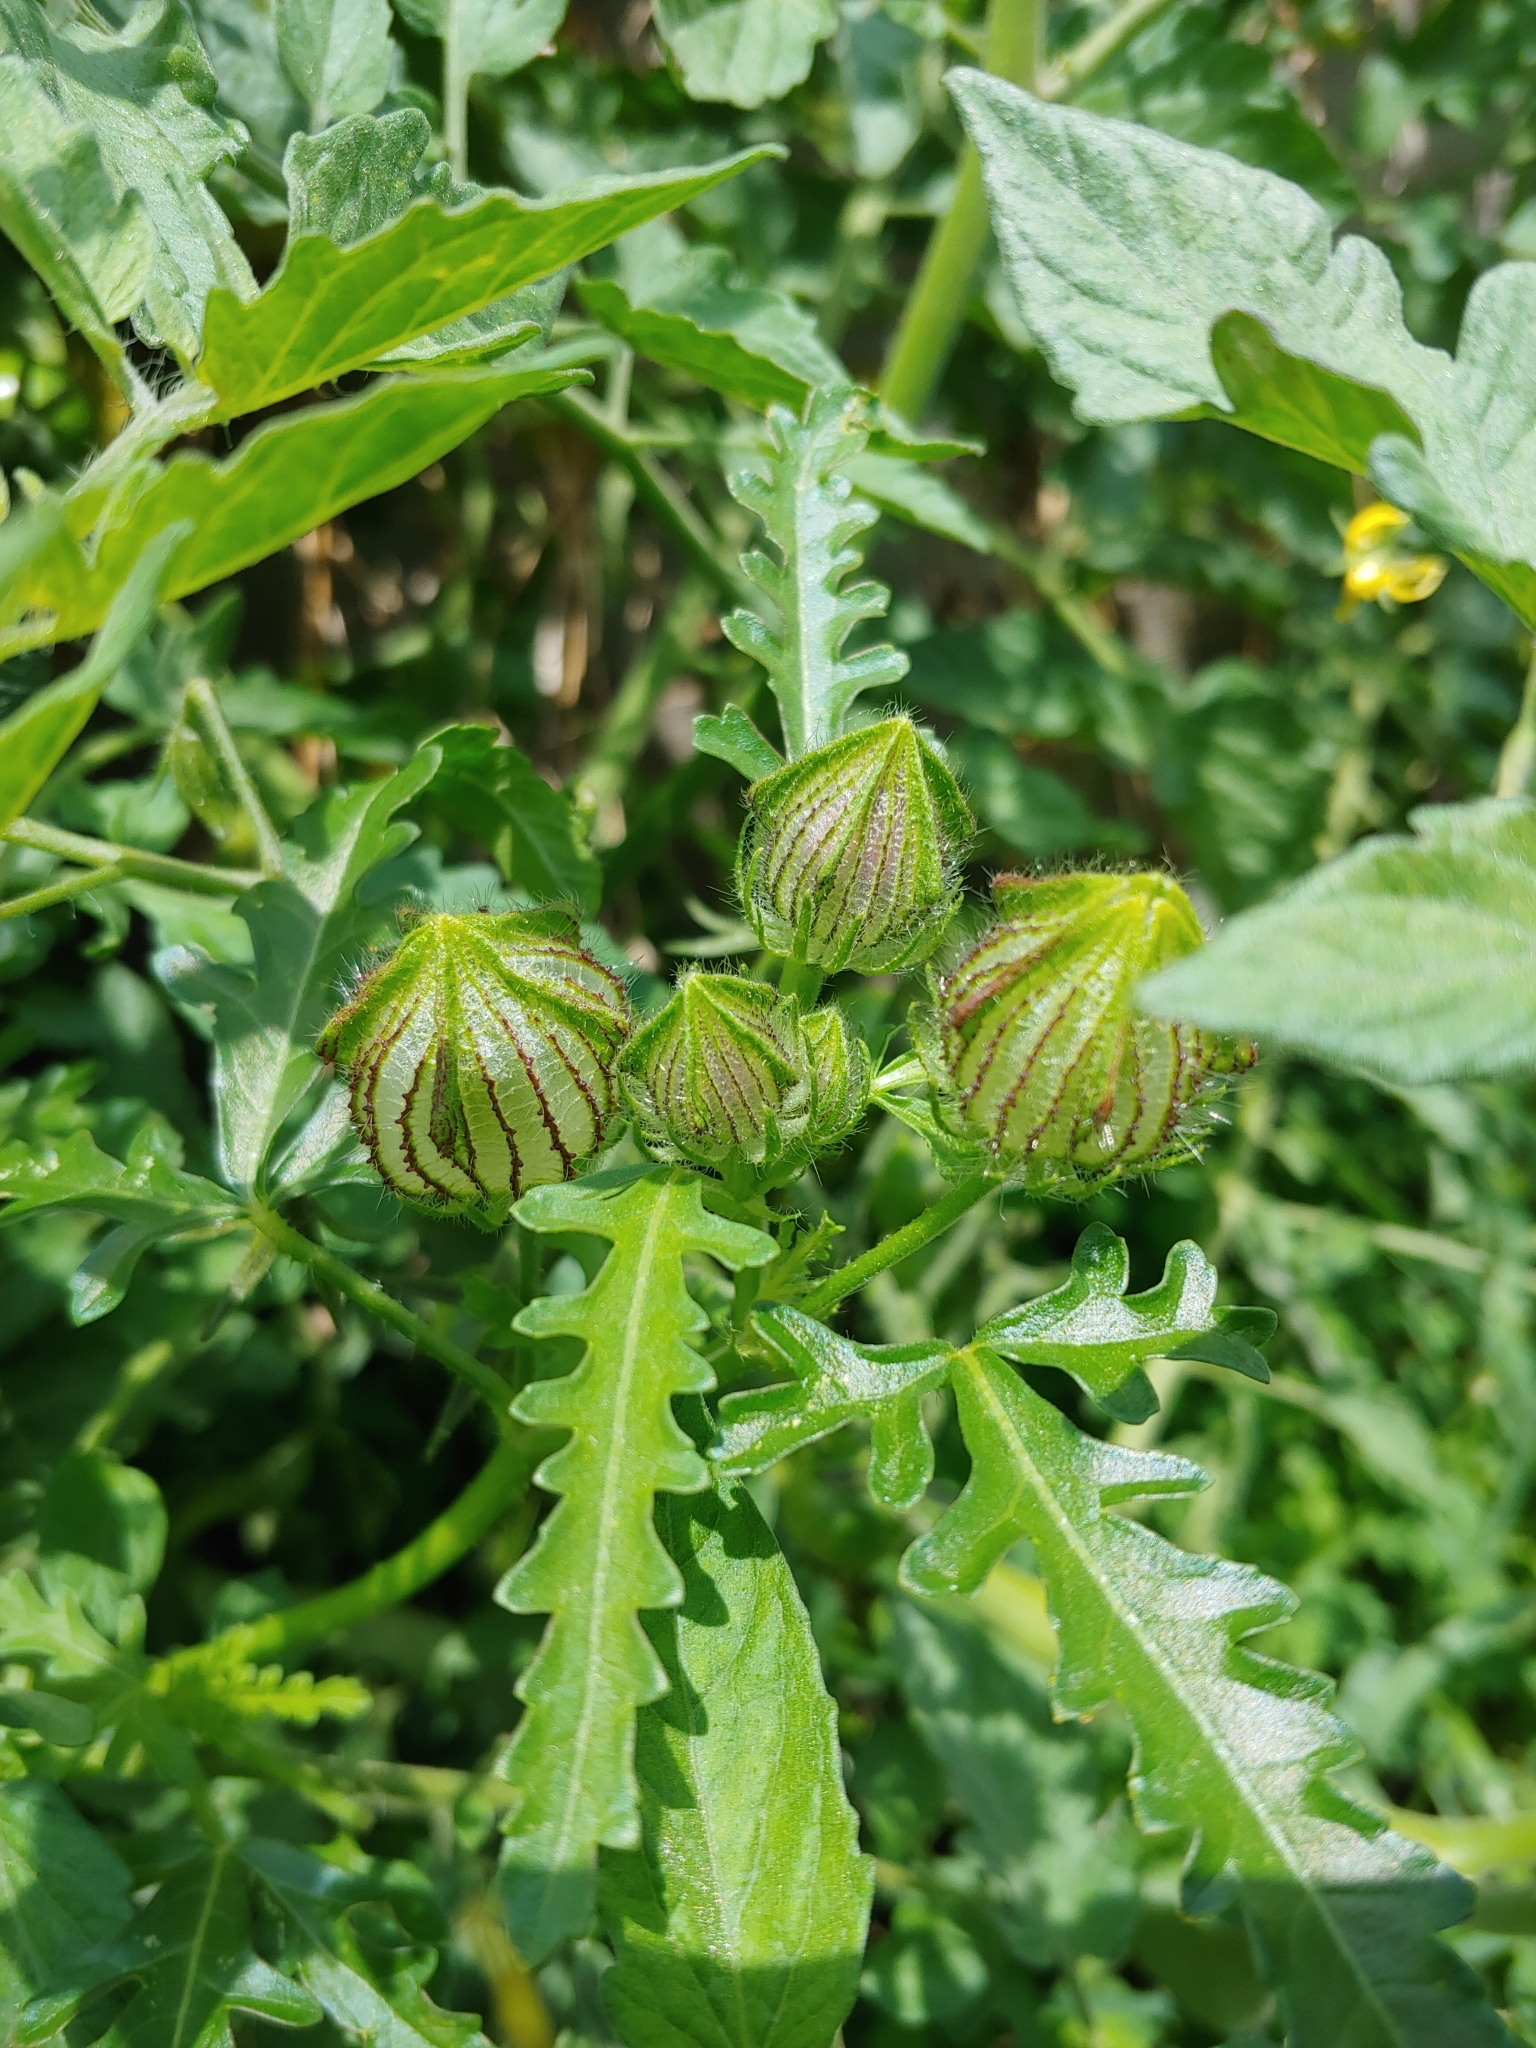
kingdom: Plantae
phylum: Tracheophyta
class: Magnoliopsida
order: Malvales
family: Malvaceae
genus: Hibiscus
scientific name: Hibiscus trionum
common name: Bladder ketmia
